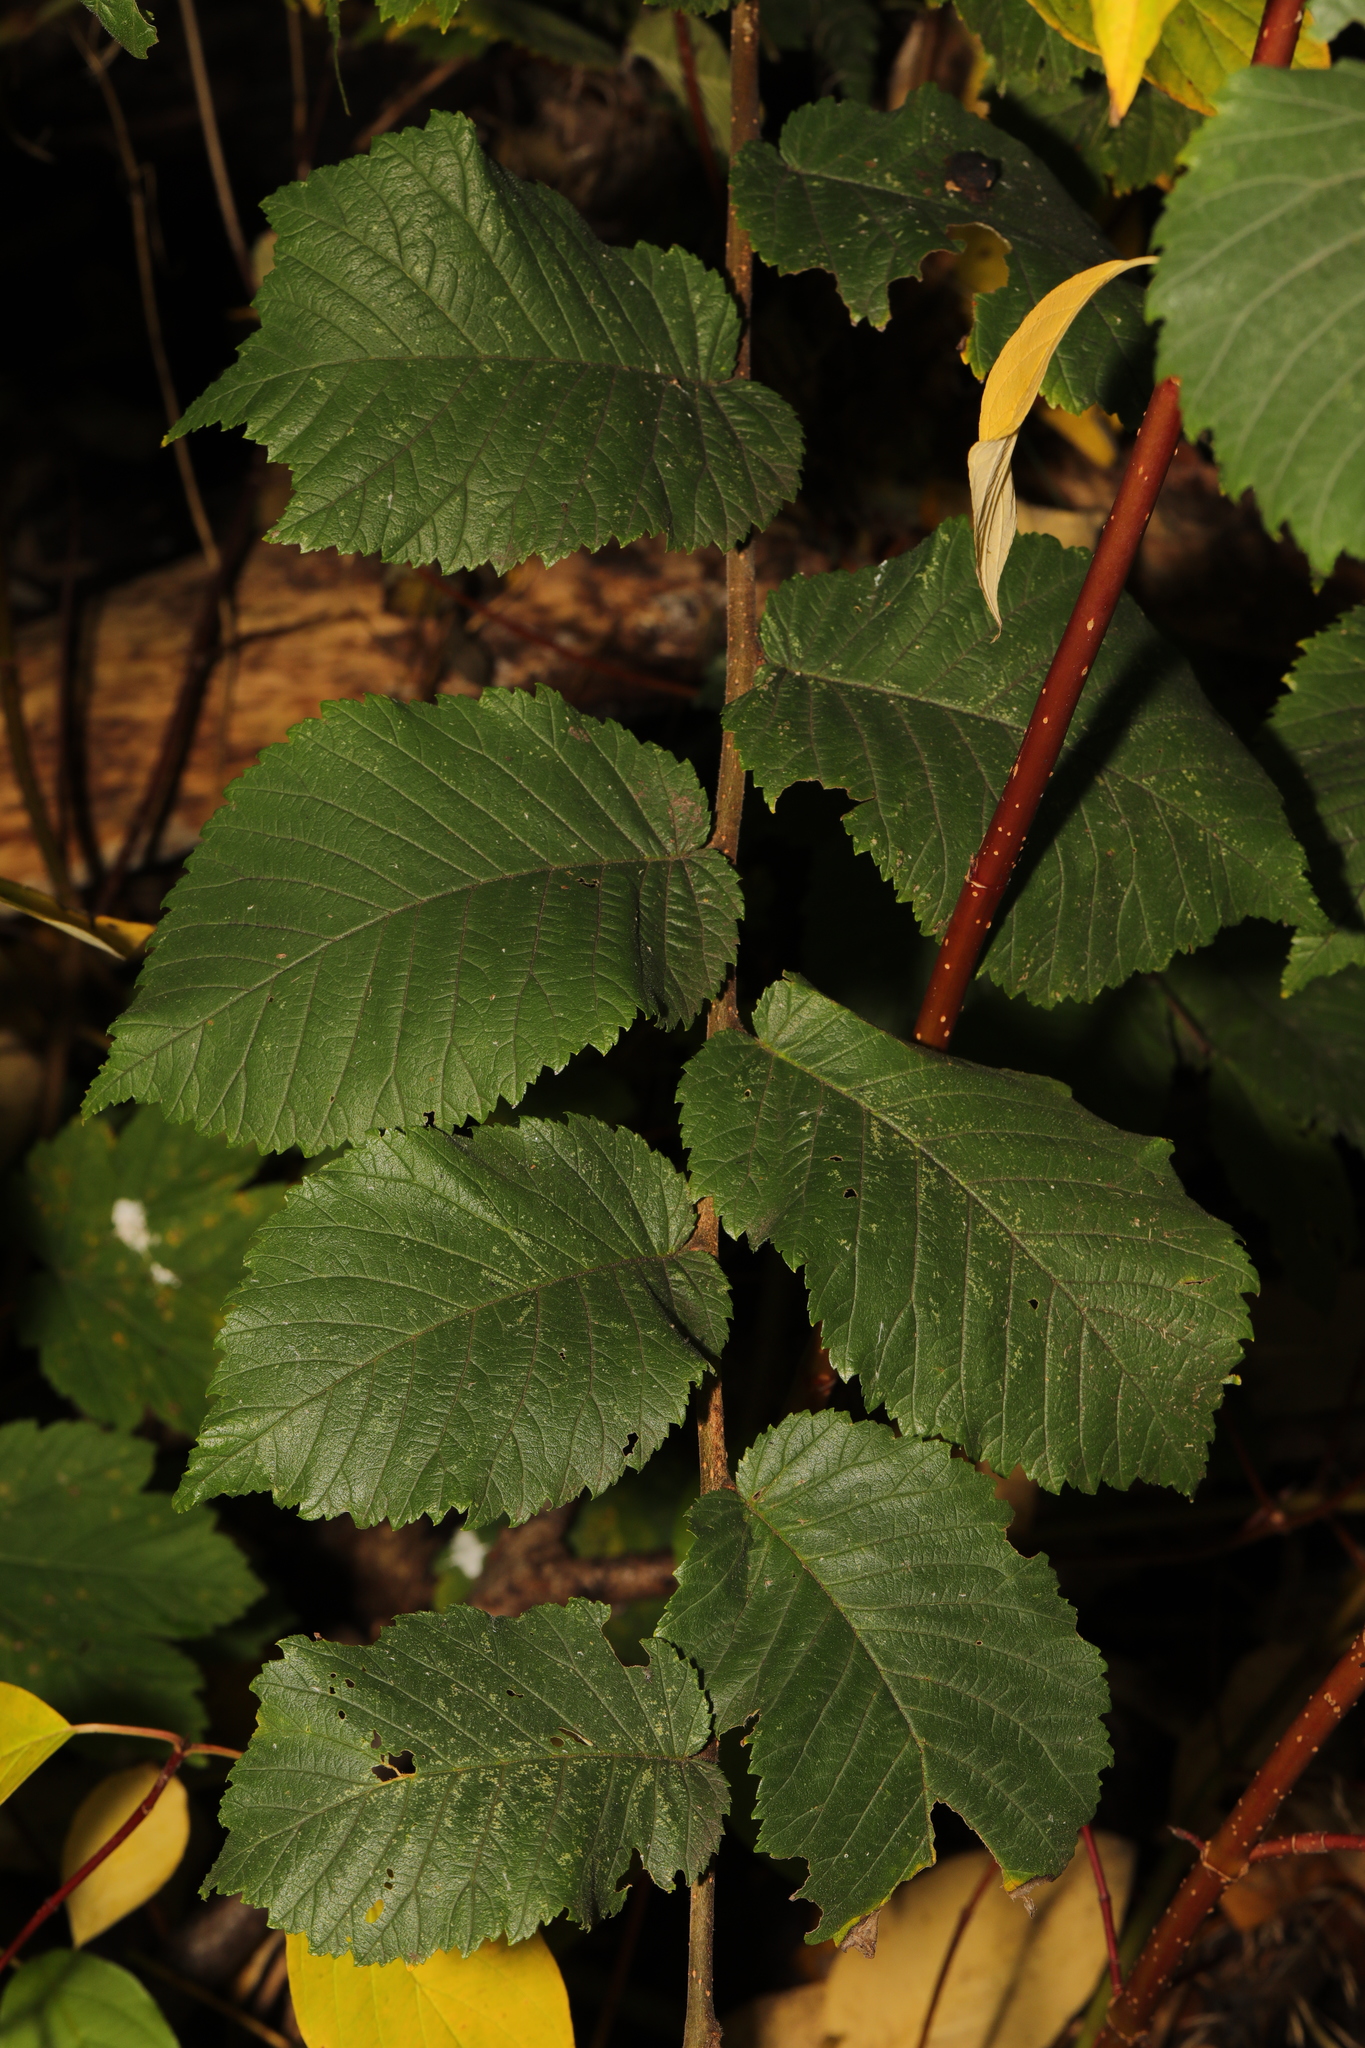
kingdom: Plantae
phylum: Tracheophyta
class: Magnoliopsida
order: Rosales
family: Ulmaceae
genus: Ulmus
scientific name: Ulmus glabra
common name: Wych elm
